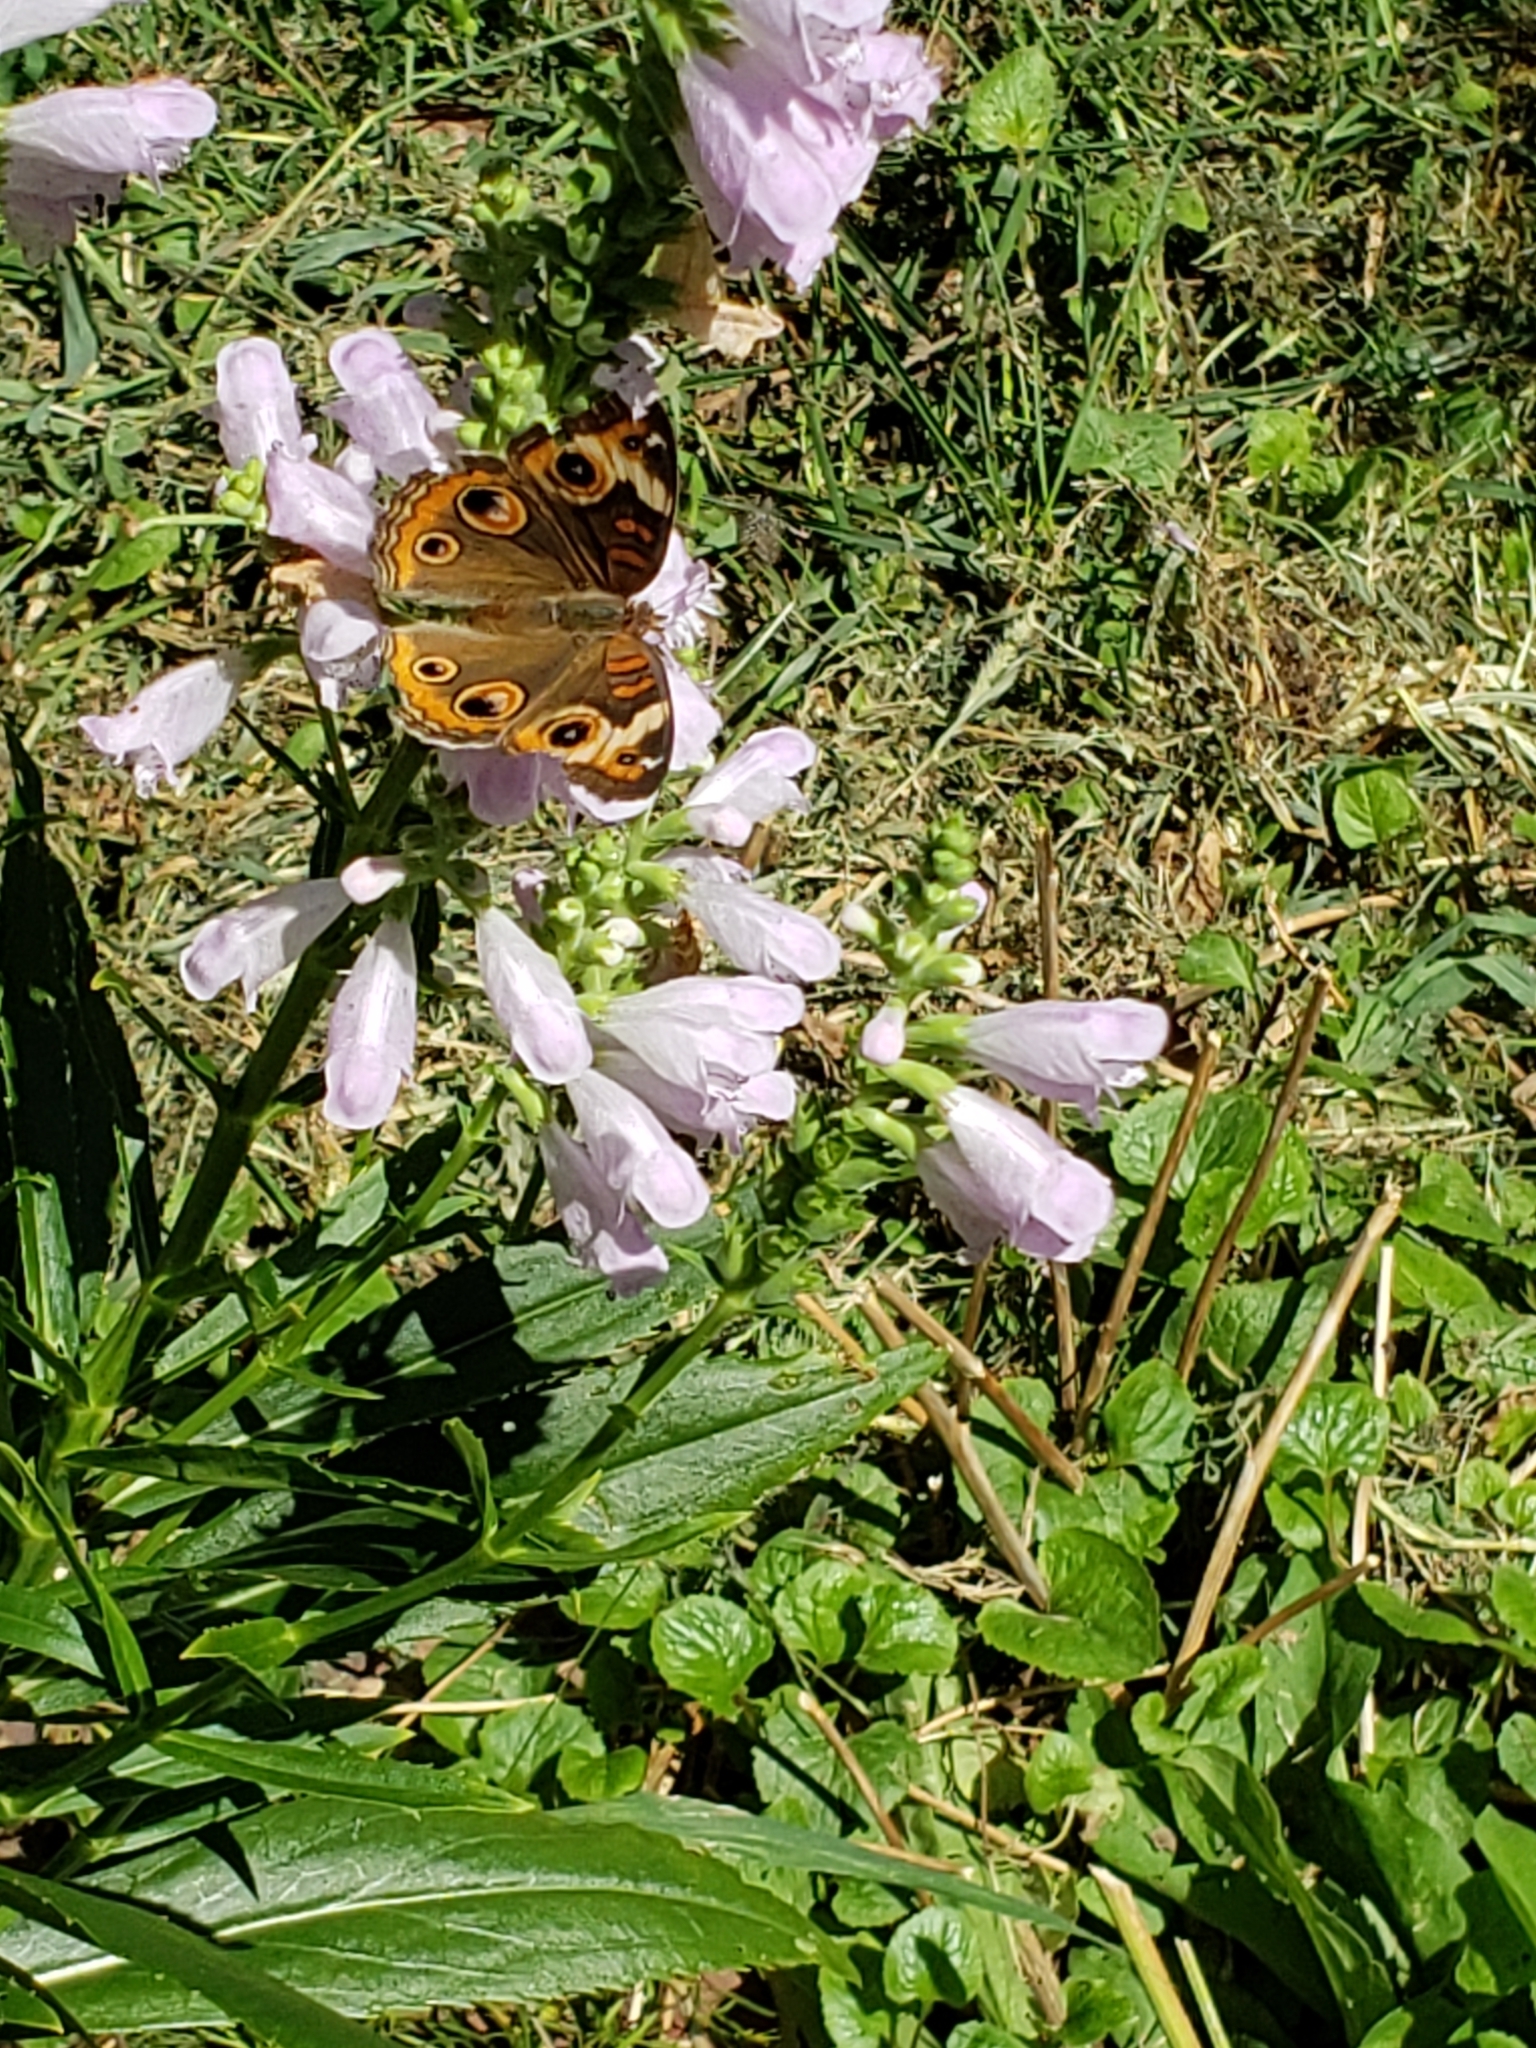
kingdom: Animalia
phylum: Arthropoda
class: Insecta
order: Lepidoptera
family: Nymphalidae
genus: Junonia
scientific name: Junonia coenia
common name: Common buckeye
